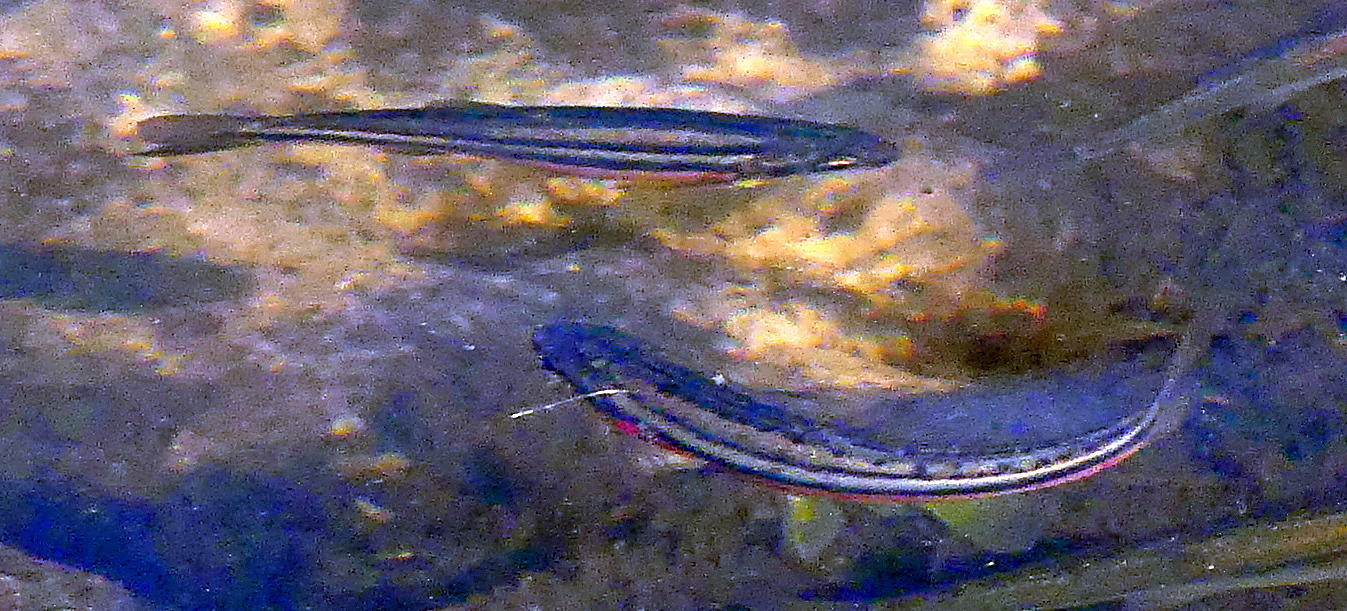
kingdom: Animalia
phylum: Chordata
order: Cypriniformes
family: Cyprinidae
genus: Chrosomus
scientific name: Chrosomus eos
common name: Northern redbelly dace
